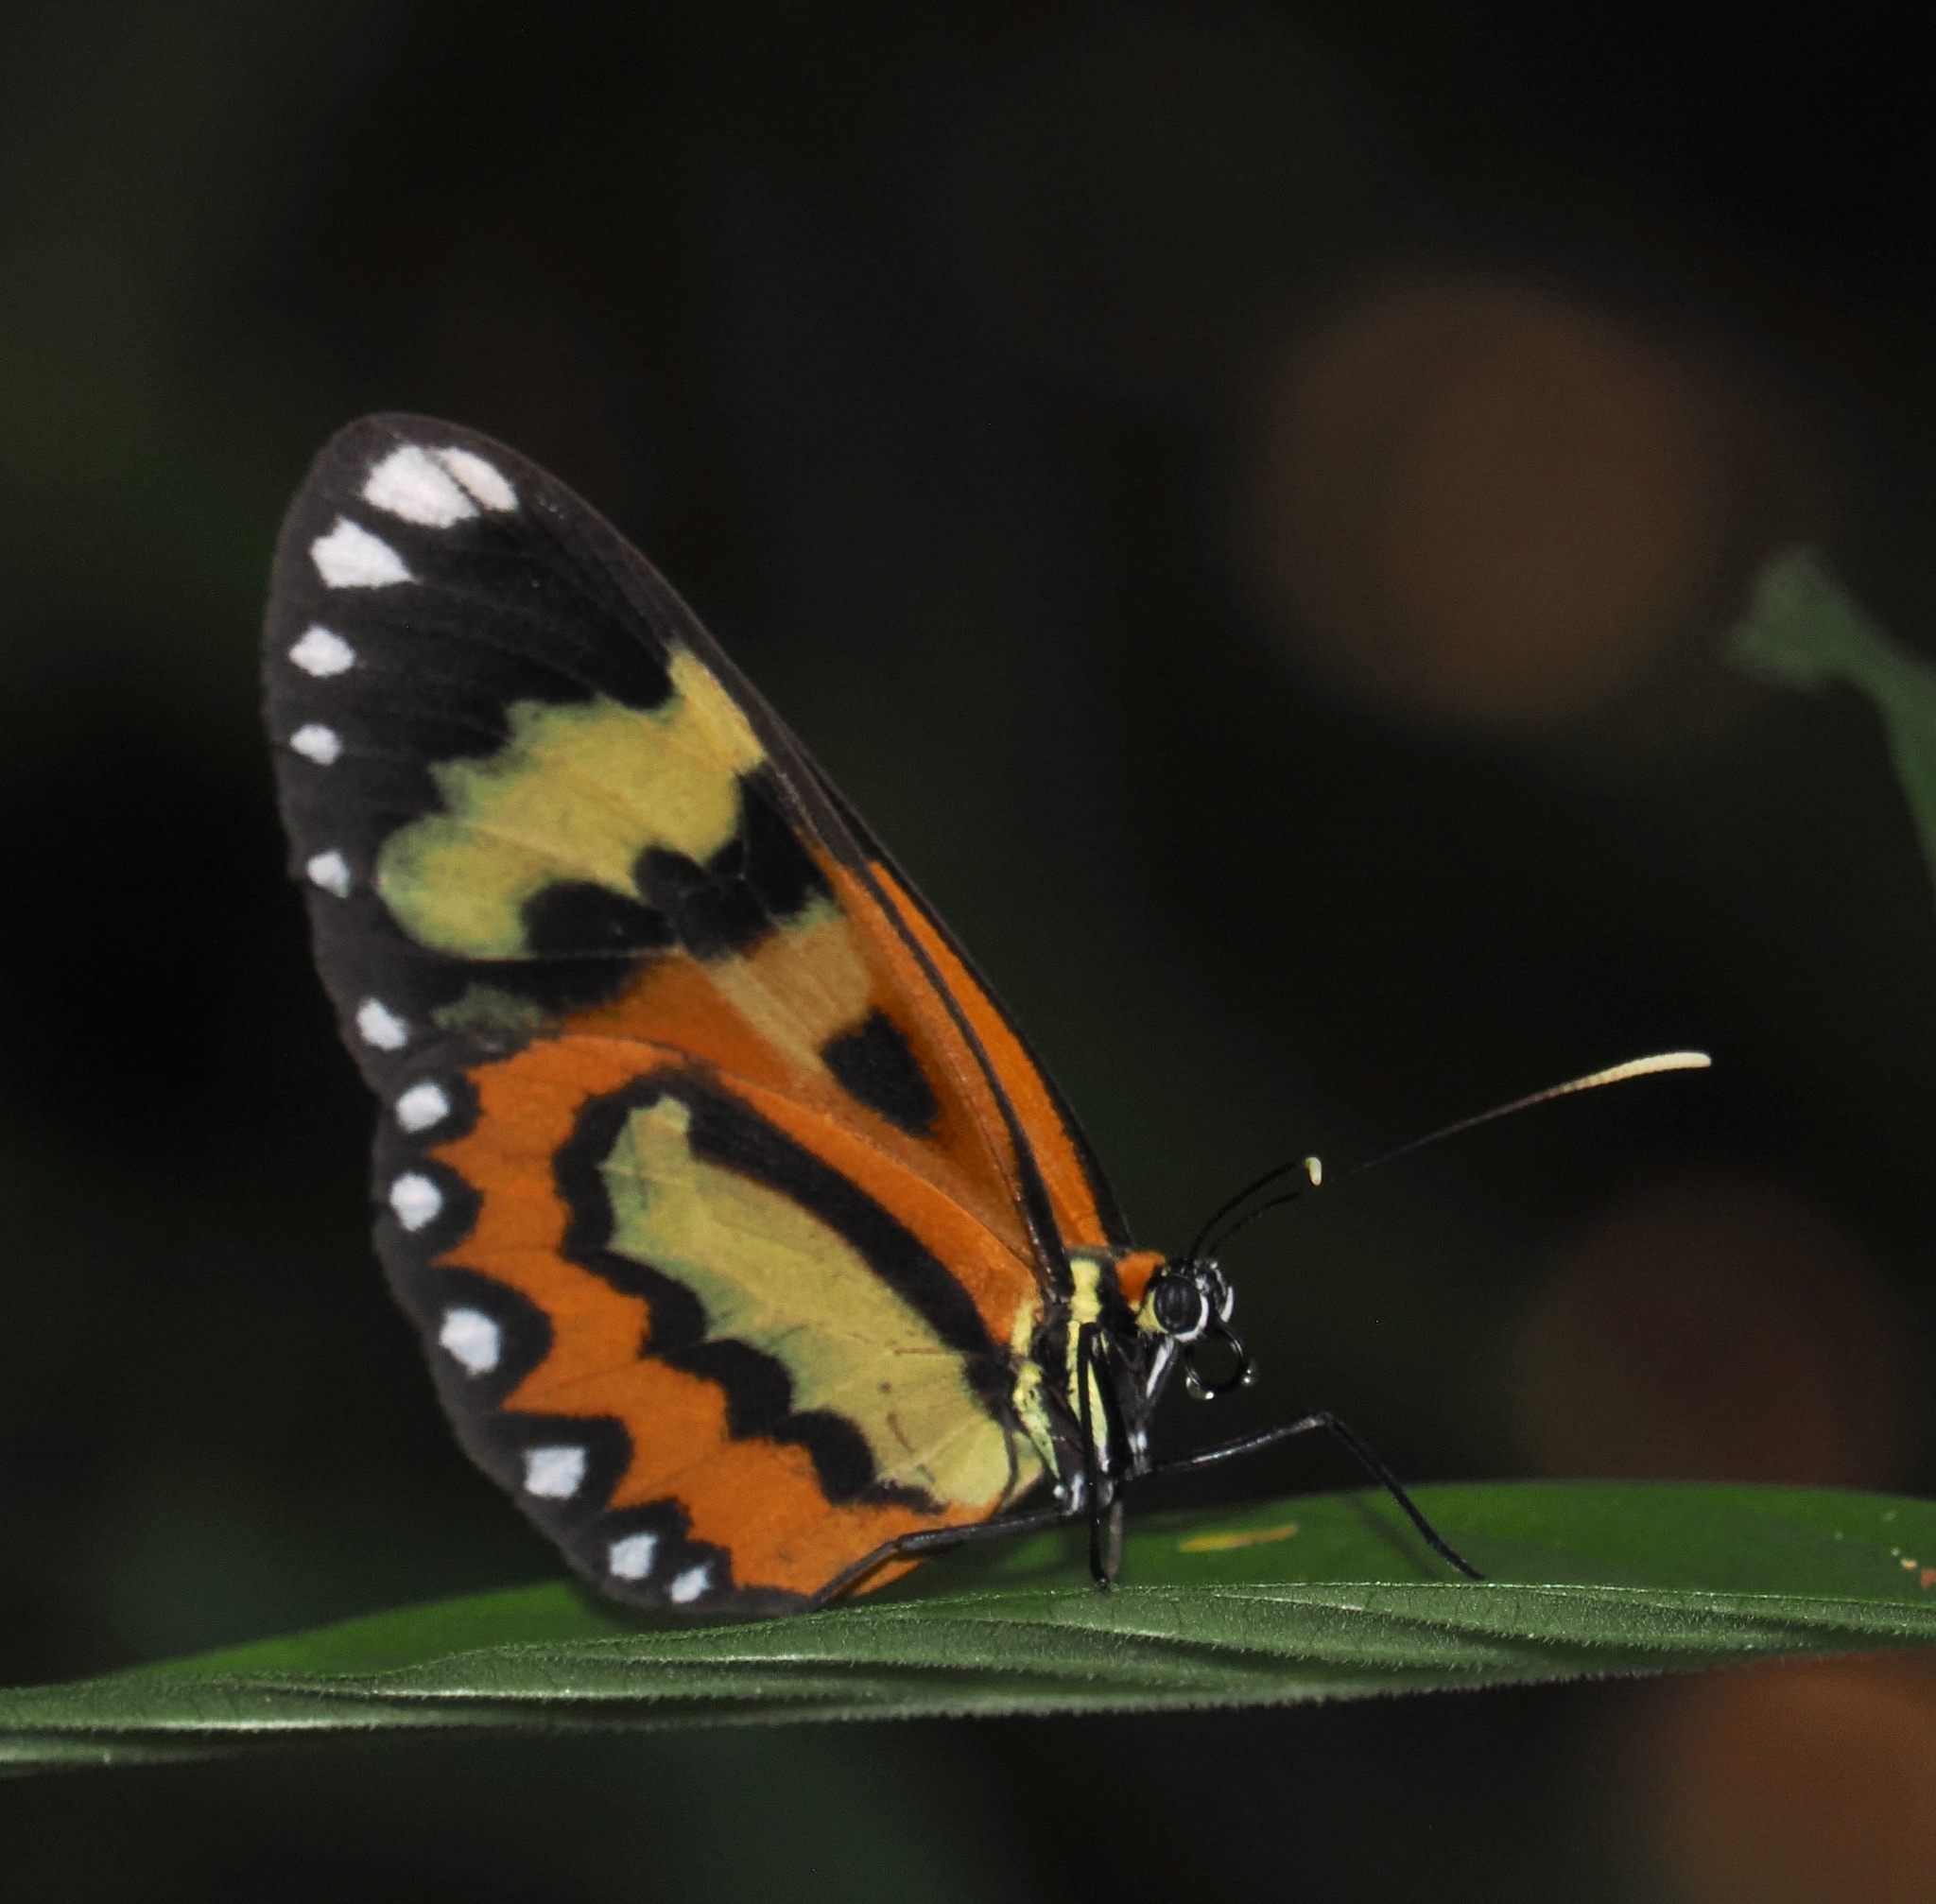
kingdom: Animalia
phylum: Arthropoda
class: Insecta
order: Lepidoptera
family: Nymphalidae
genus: Placidina
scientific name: Placidina euryanassa
